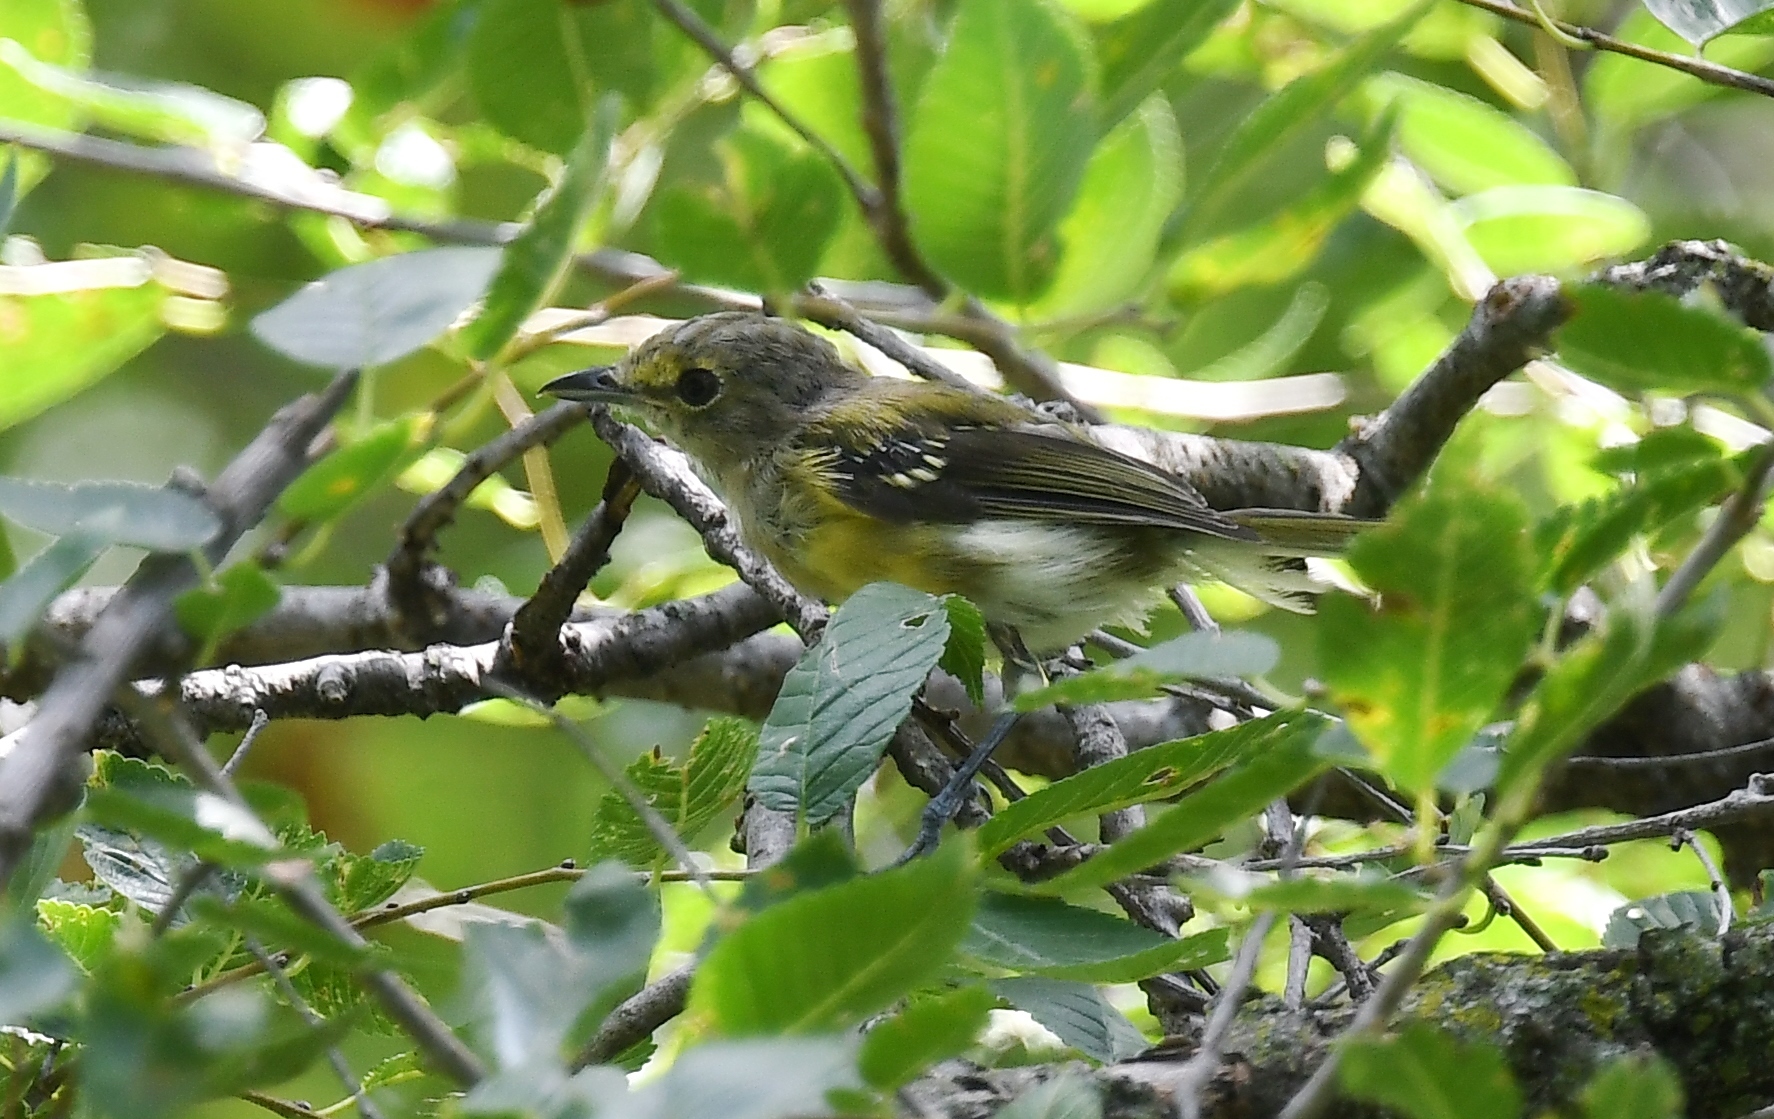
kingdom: Animalia
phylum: Chordata
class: Aves
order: Passeriformes
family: Vireonidae
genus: Vireo
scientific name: Vireo griseus
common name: White-eyed vireo
